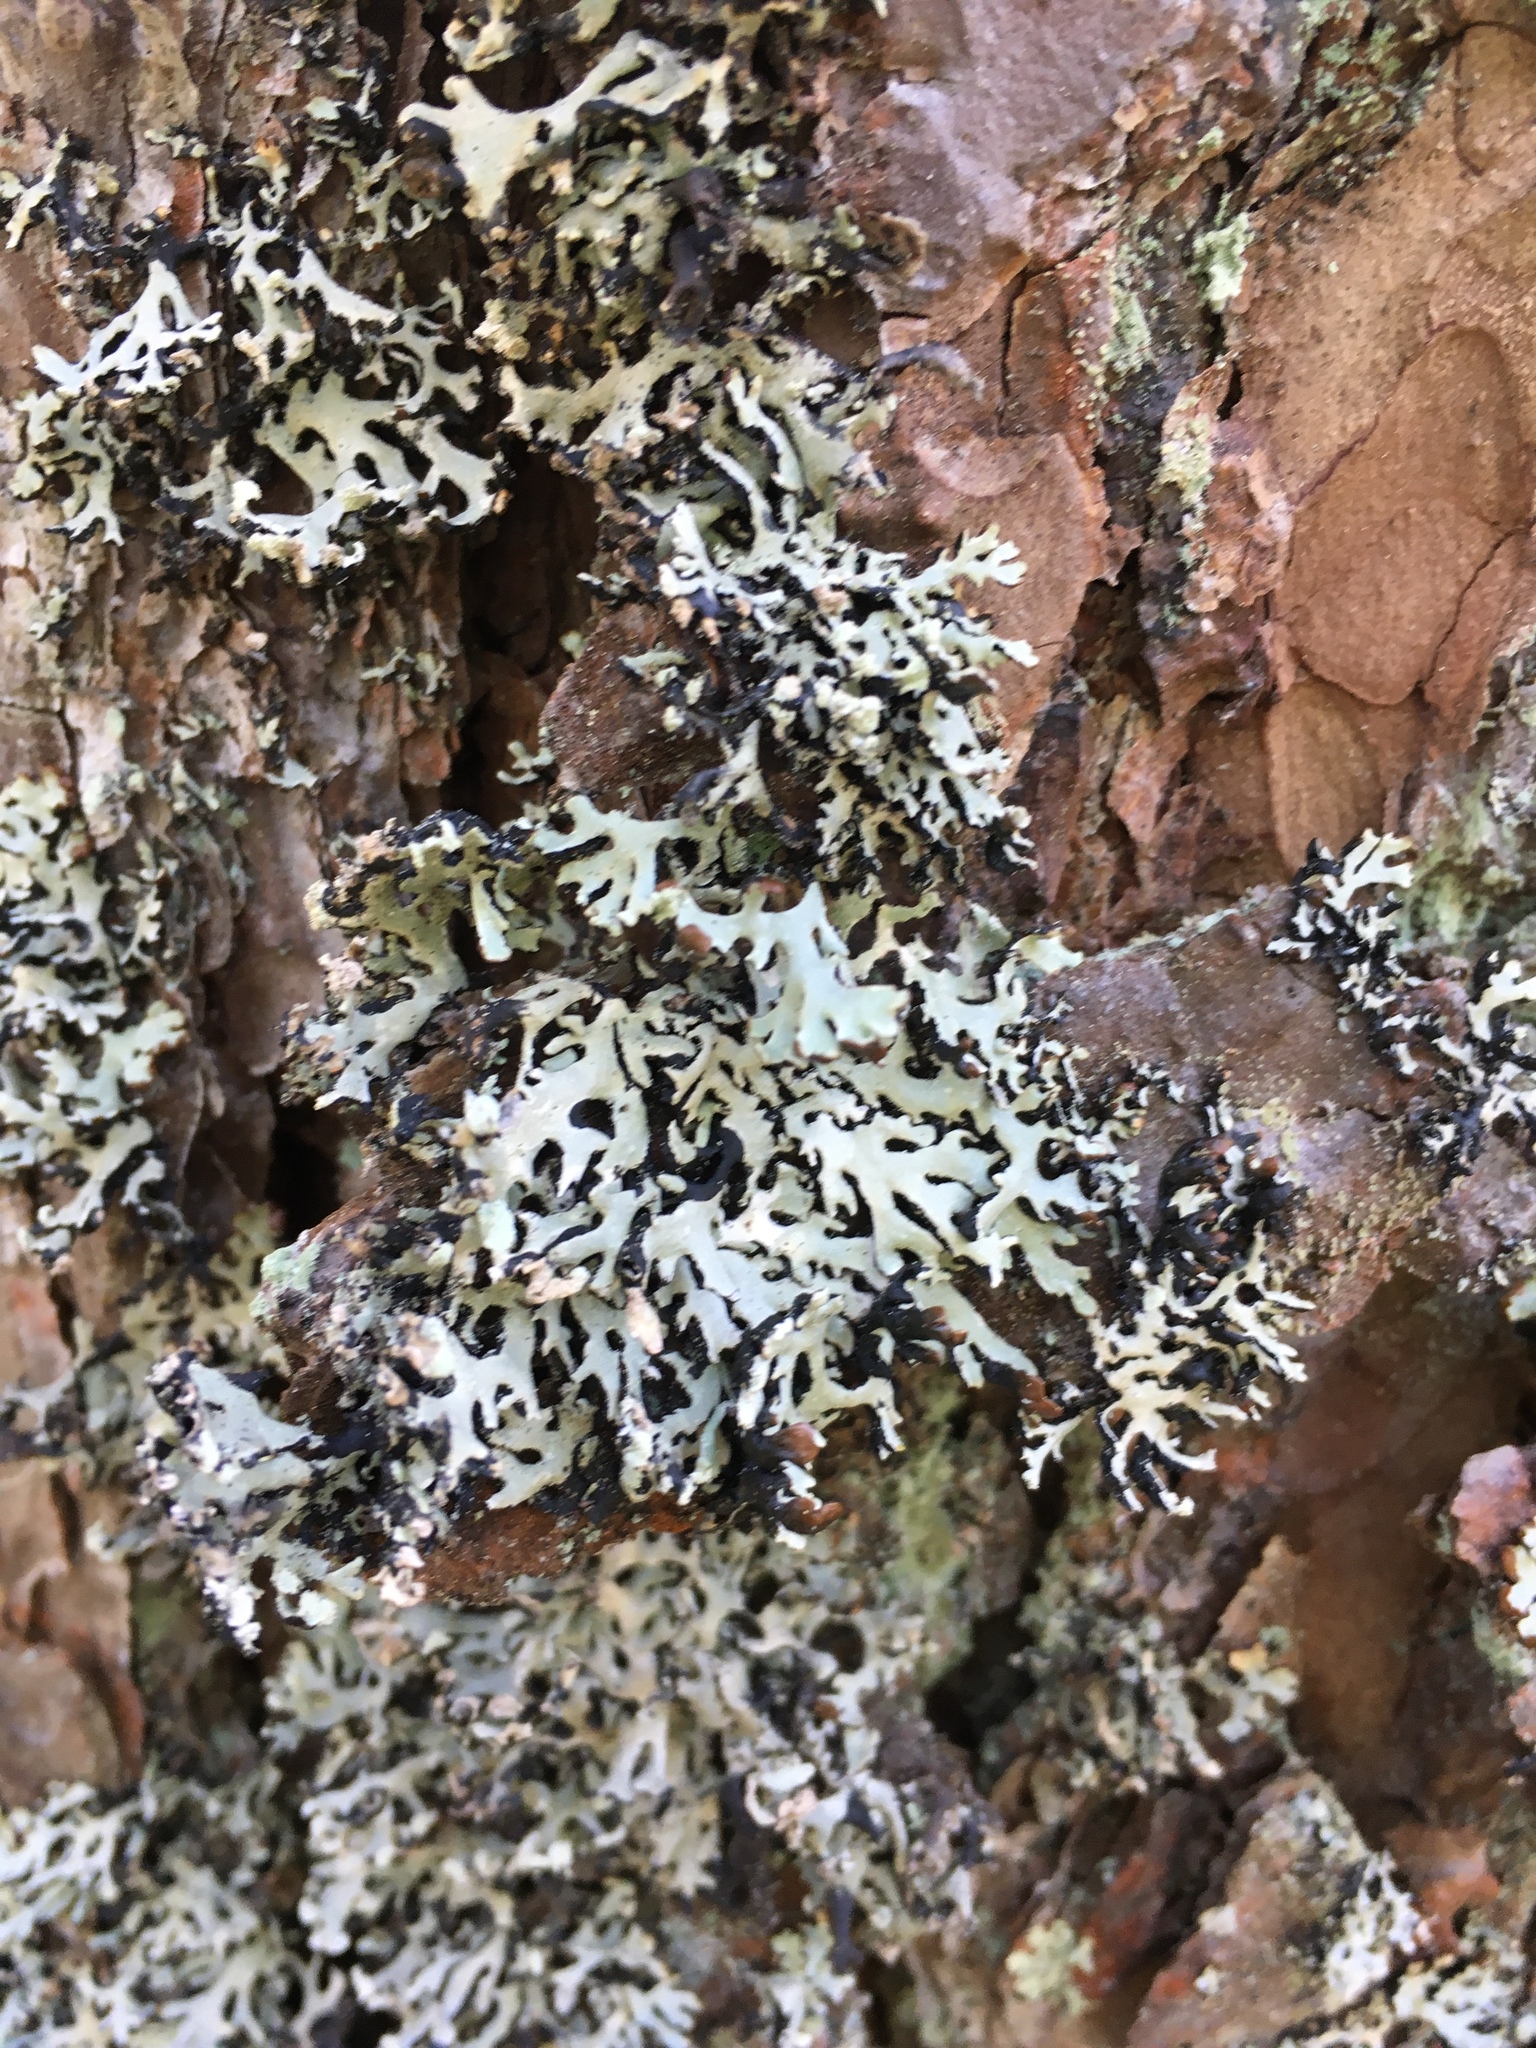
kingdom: Fungi
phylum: Ascomycota
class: Lecanoromycetes
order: Lecanorales
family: Parmeliaceae
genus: Hypogymnia
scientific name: Hypogymnia physodes
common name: Dark crottle
